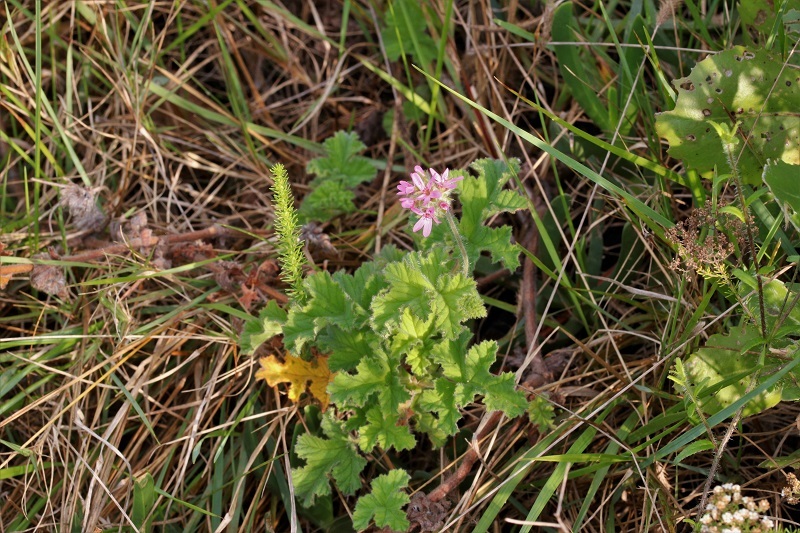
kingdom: Plantae
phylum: Tracheophyta
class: Magnoliopsida
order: Geraniales
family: Geraniaceae
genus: Pelargonium
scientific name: Pelargonium capitatum
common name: Rose scented geranium
